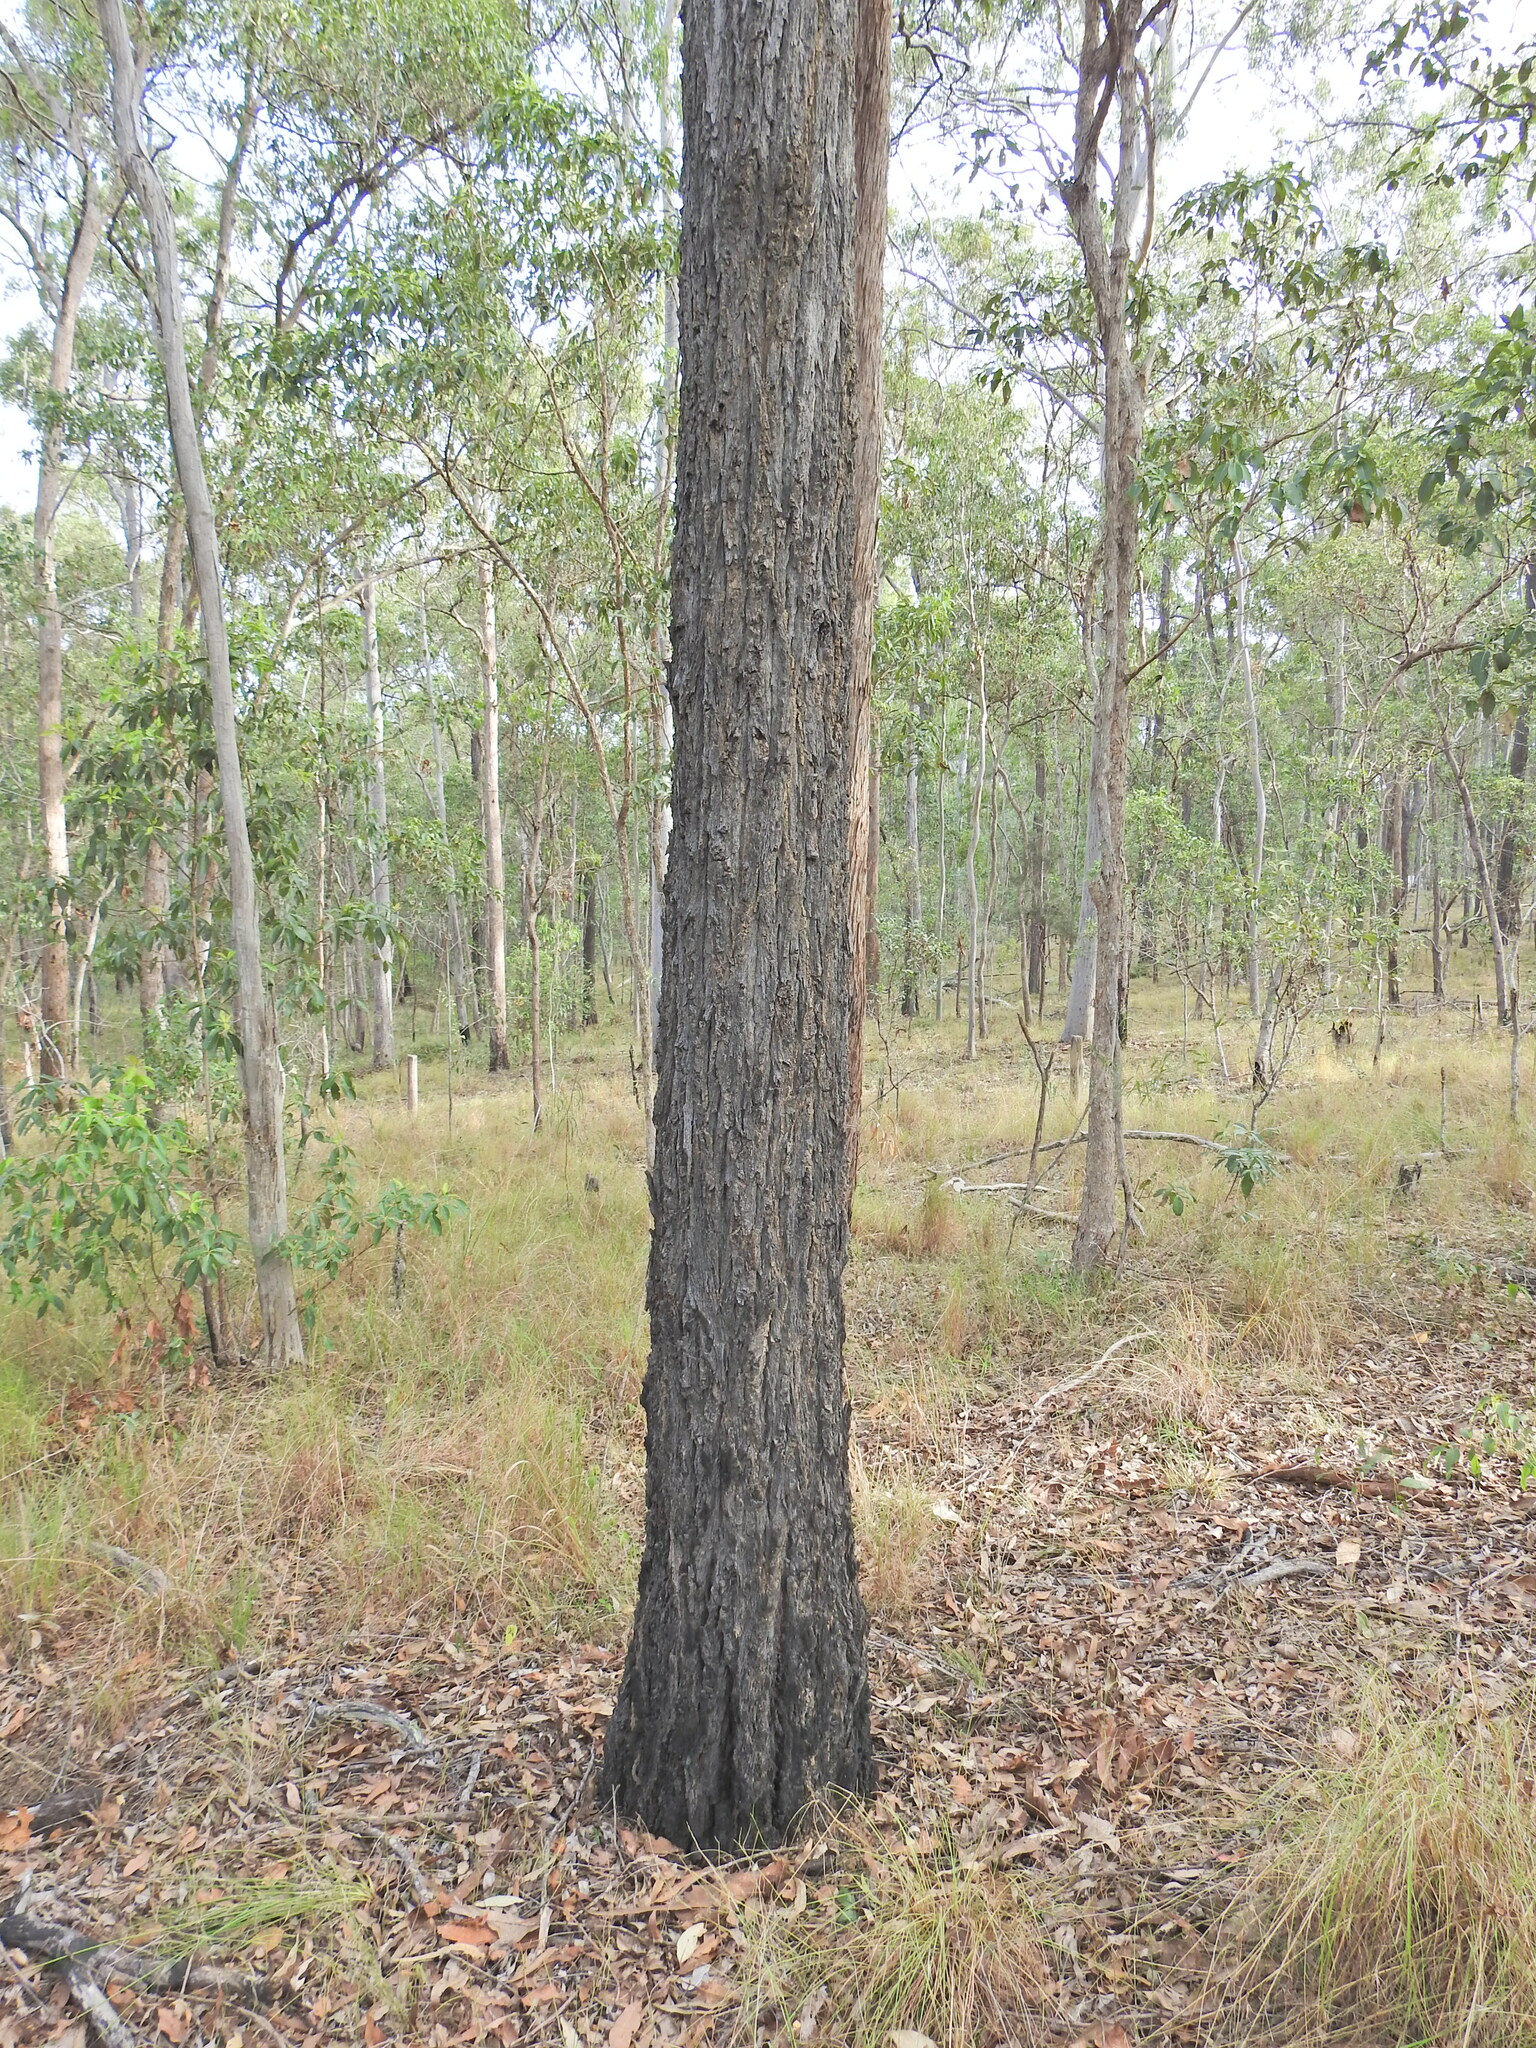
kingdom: Plantae
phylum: Tracheophyta
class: Magnoliopsida
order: Myrtales
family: Myrtaceae
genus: Eucalyptus
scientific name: Eucalyptus siderophloia
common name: Broad-leafed-ironbark
